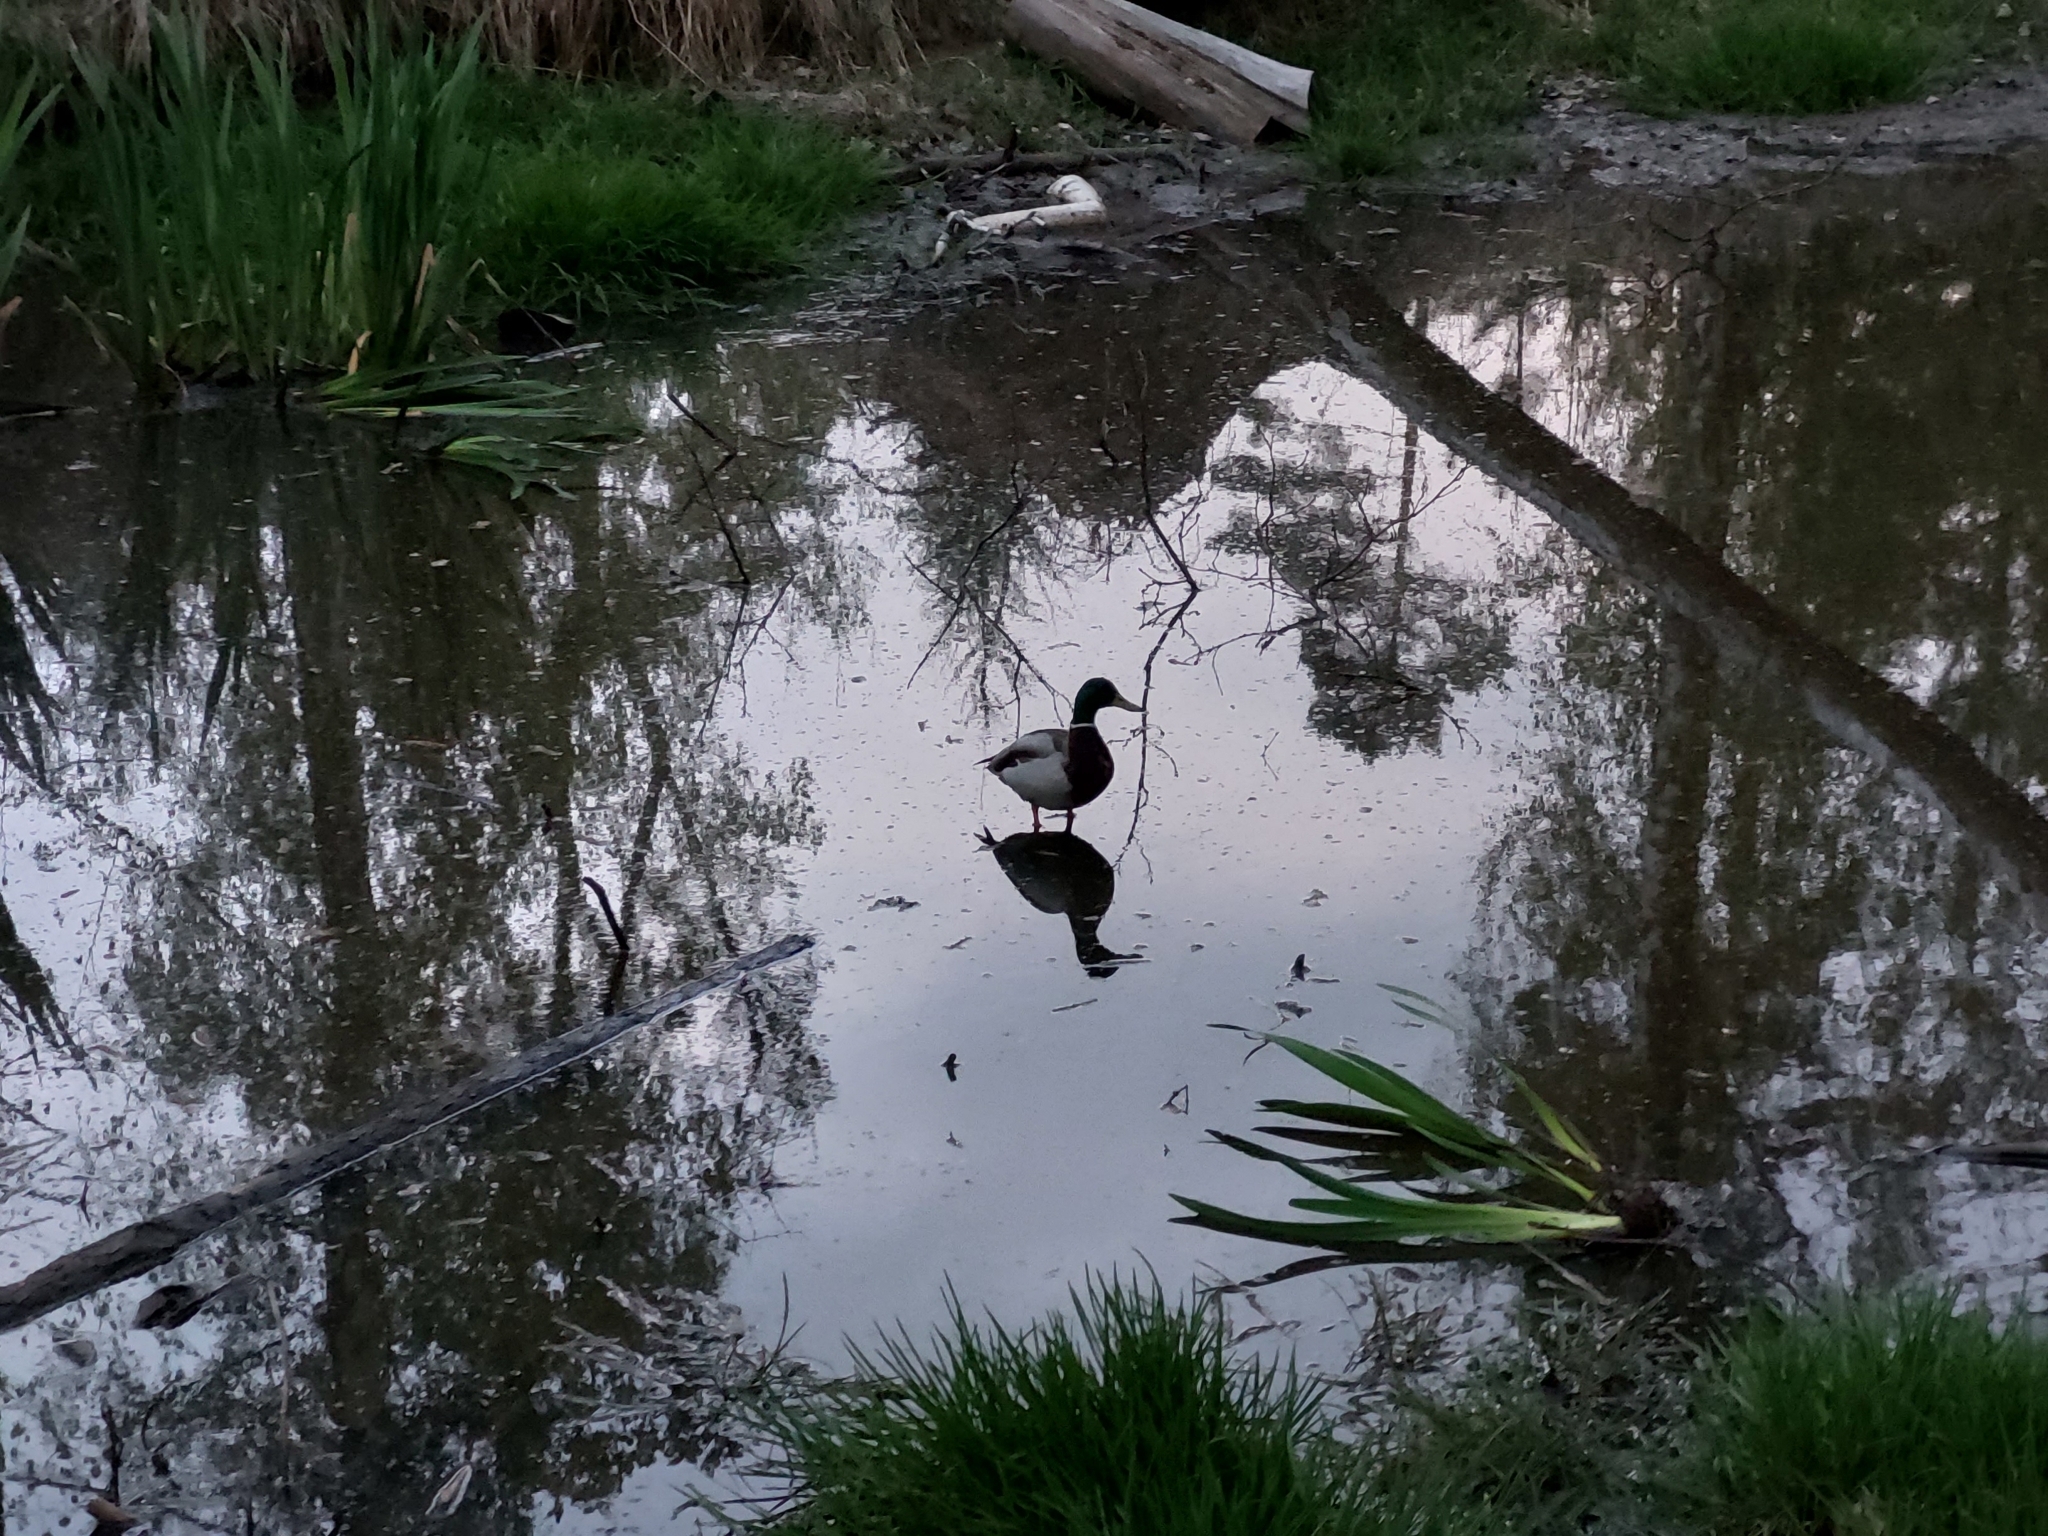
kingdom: Animalia
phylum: Chordata
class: Aves
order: Anseriformes
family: Anatidae
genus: Anas
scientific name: Anas platyrhynchos
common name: Mallard
